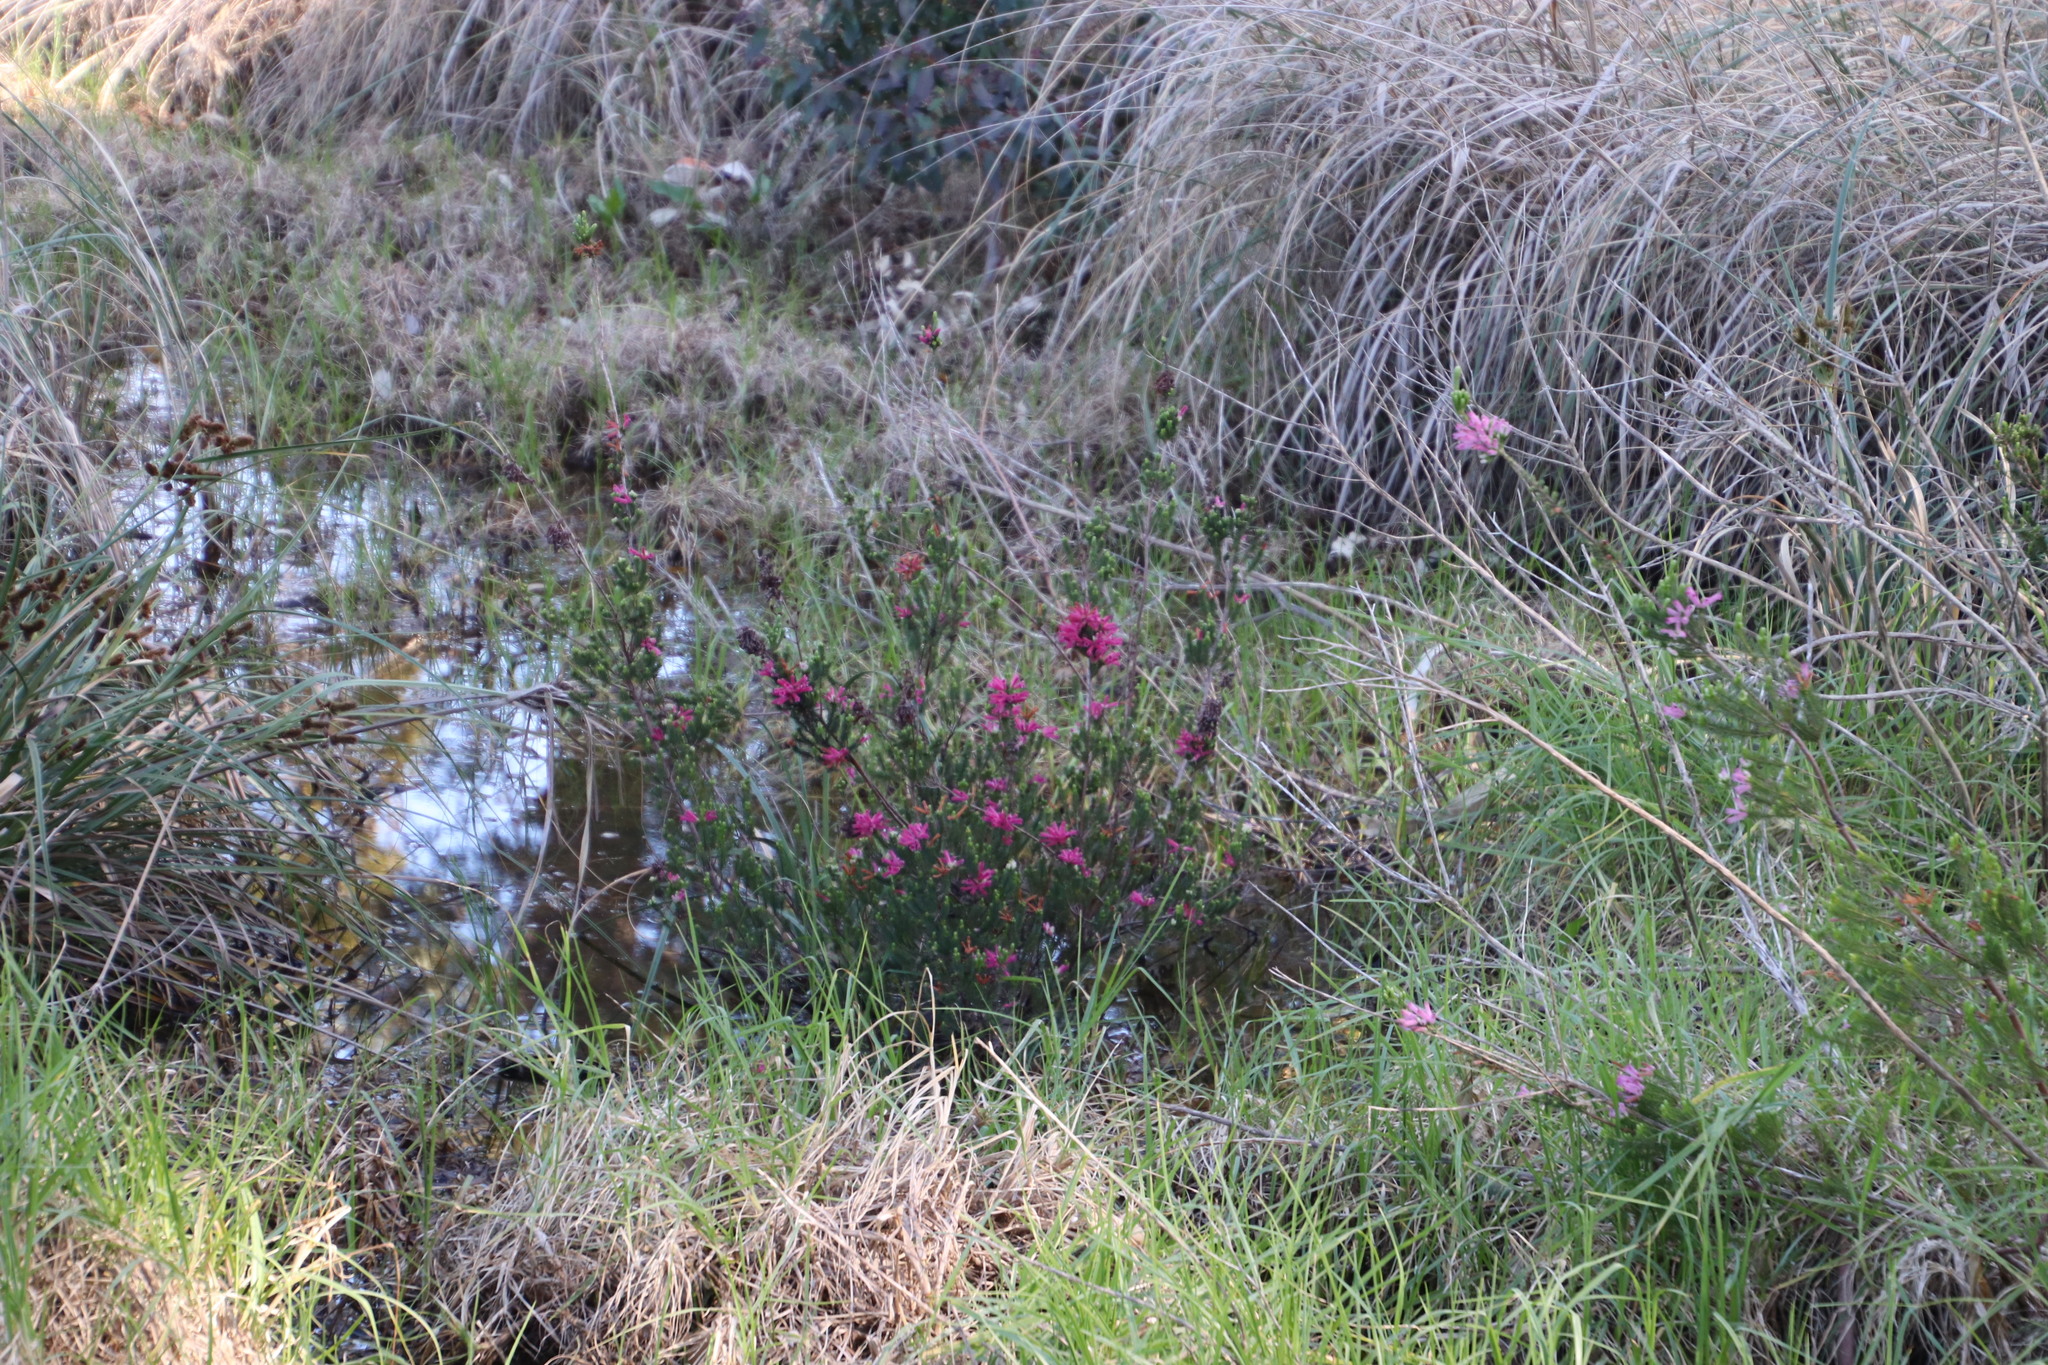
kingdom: Plantae
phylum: Tracheophyta
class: Magnoliopsida
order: Ericales
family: Ericaceae
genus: Erica
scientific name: Erica verticillata
